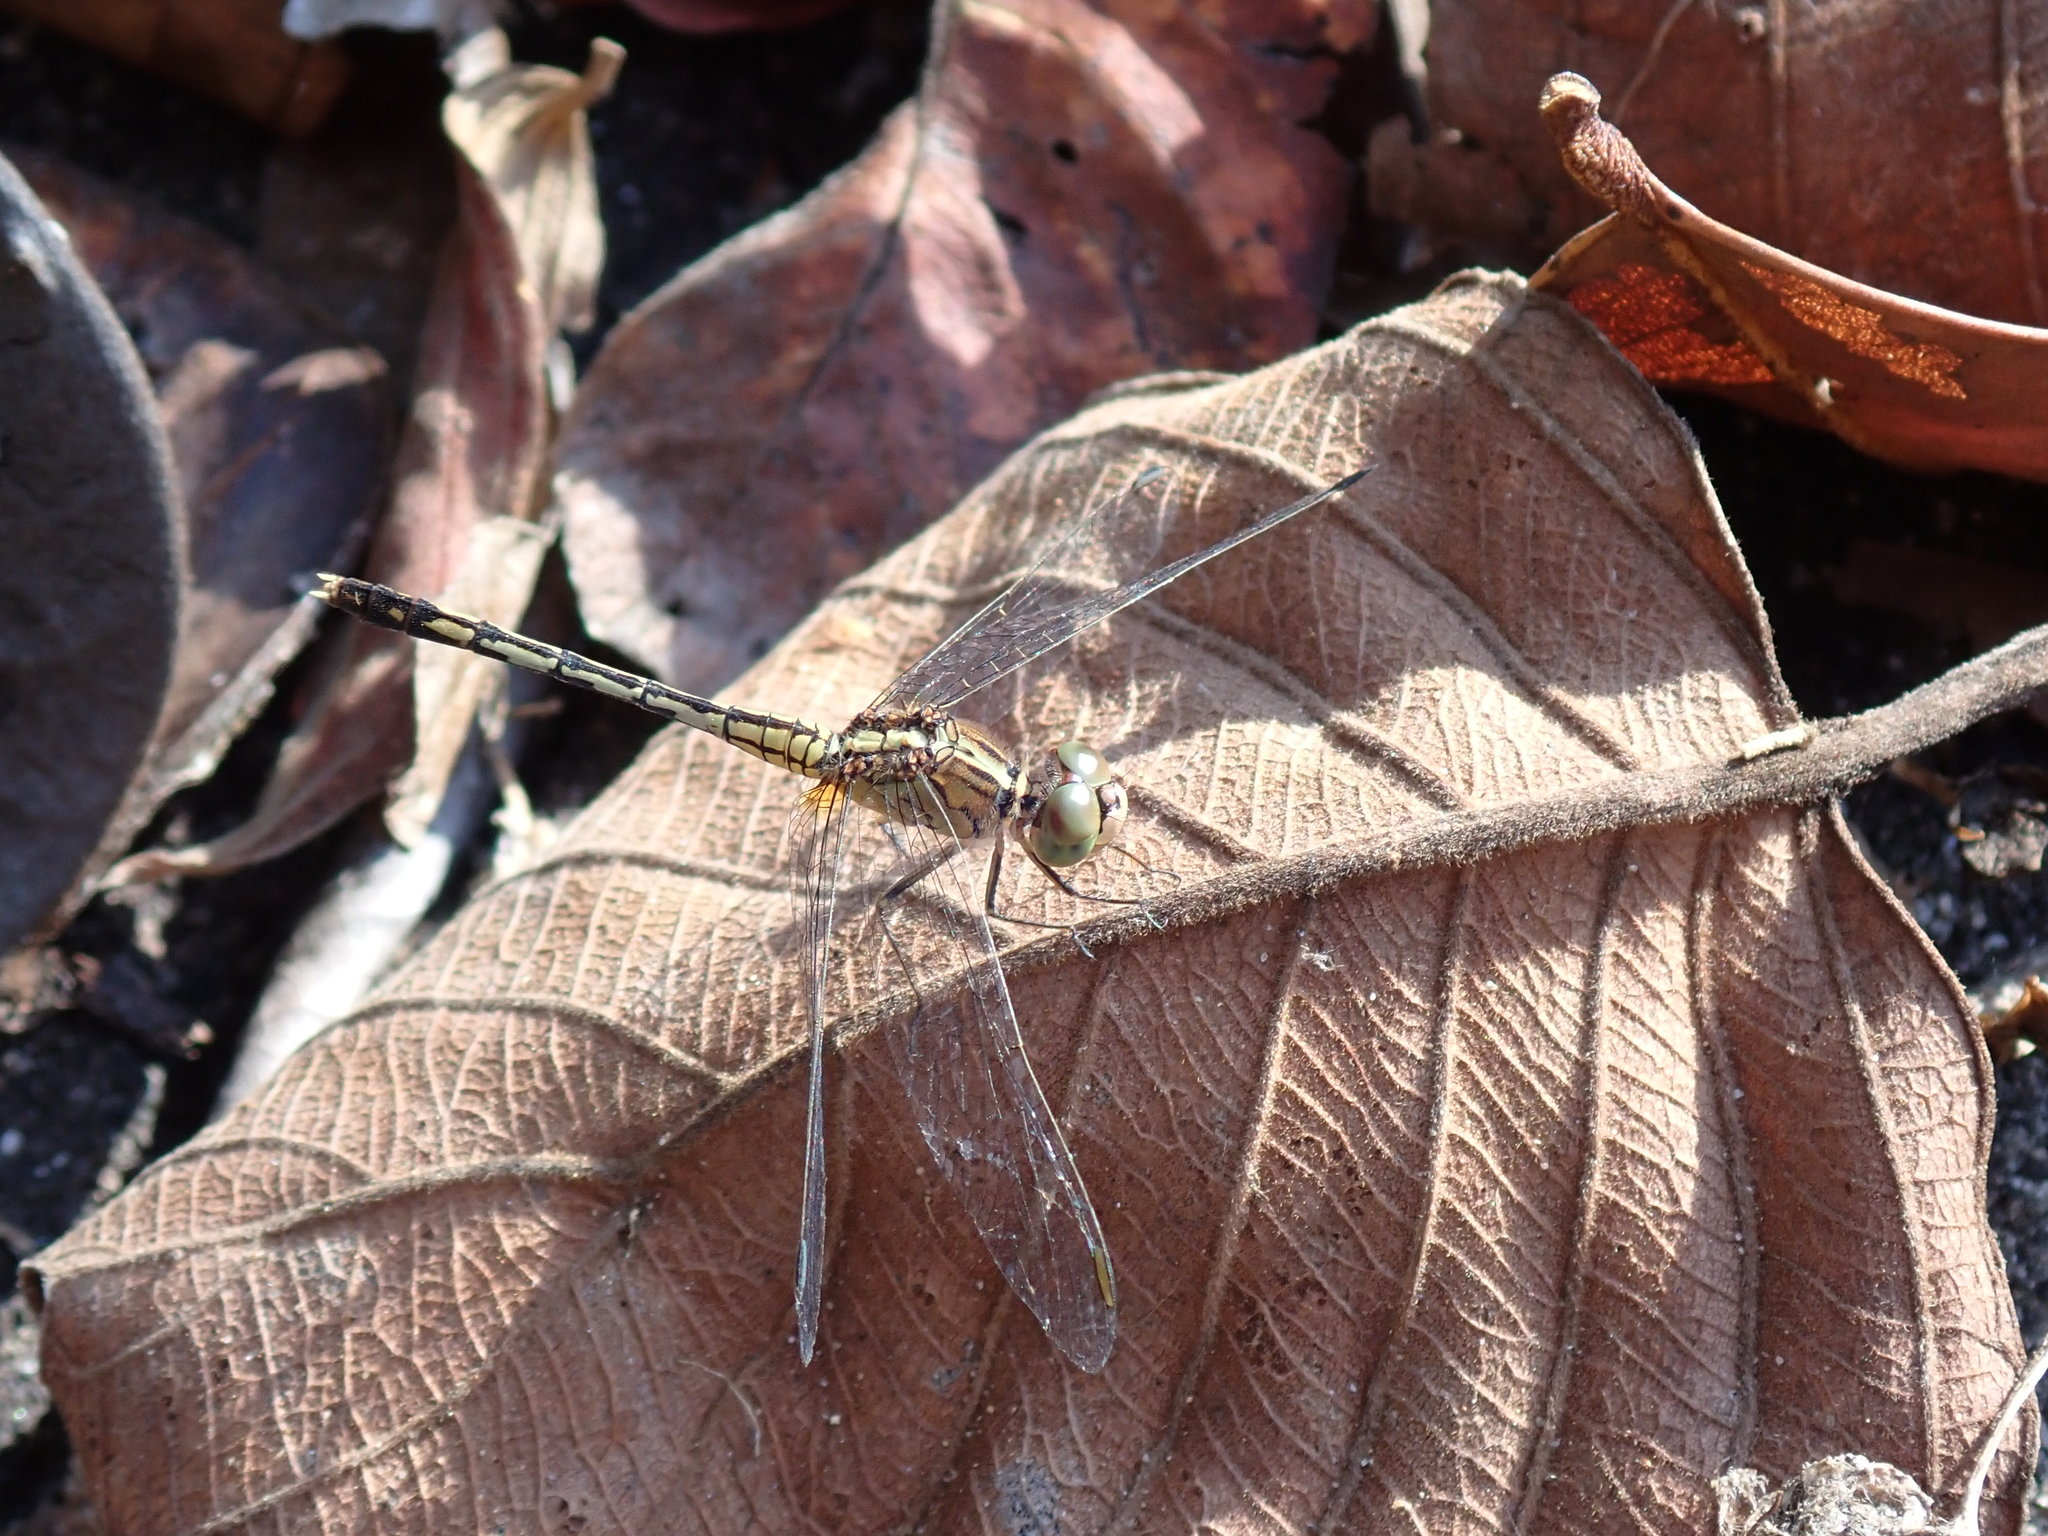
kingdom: Animalia
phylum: Arthropoda
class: Insecta
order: Odonata
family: Libellulidae
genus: Diplacodes
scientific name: Diplacodes trivialis
